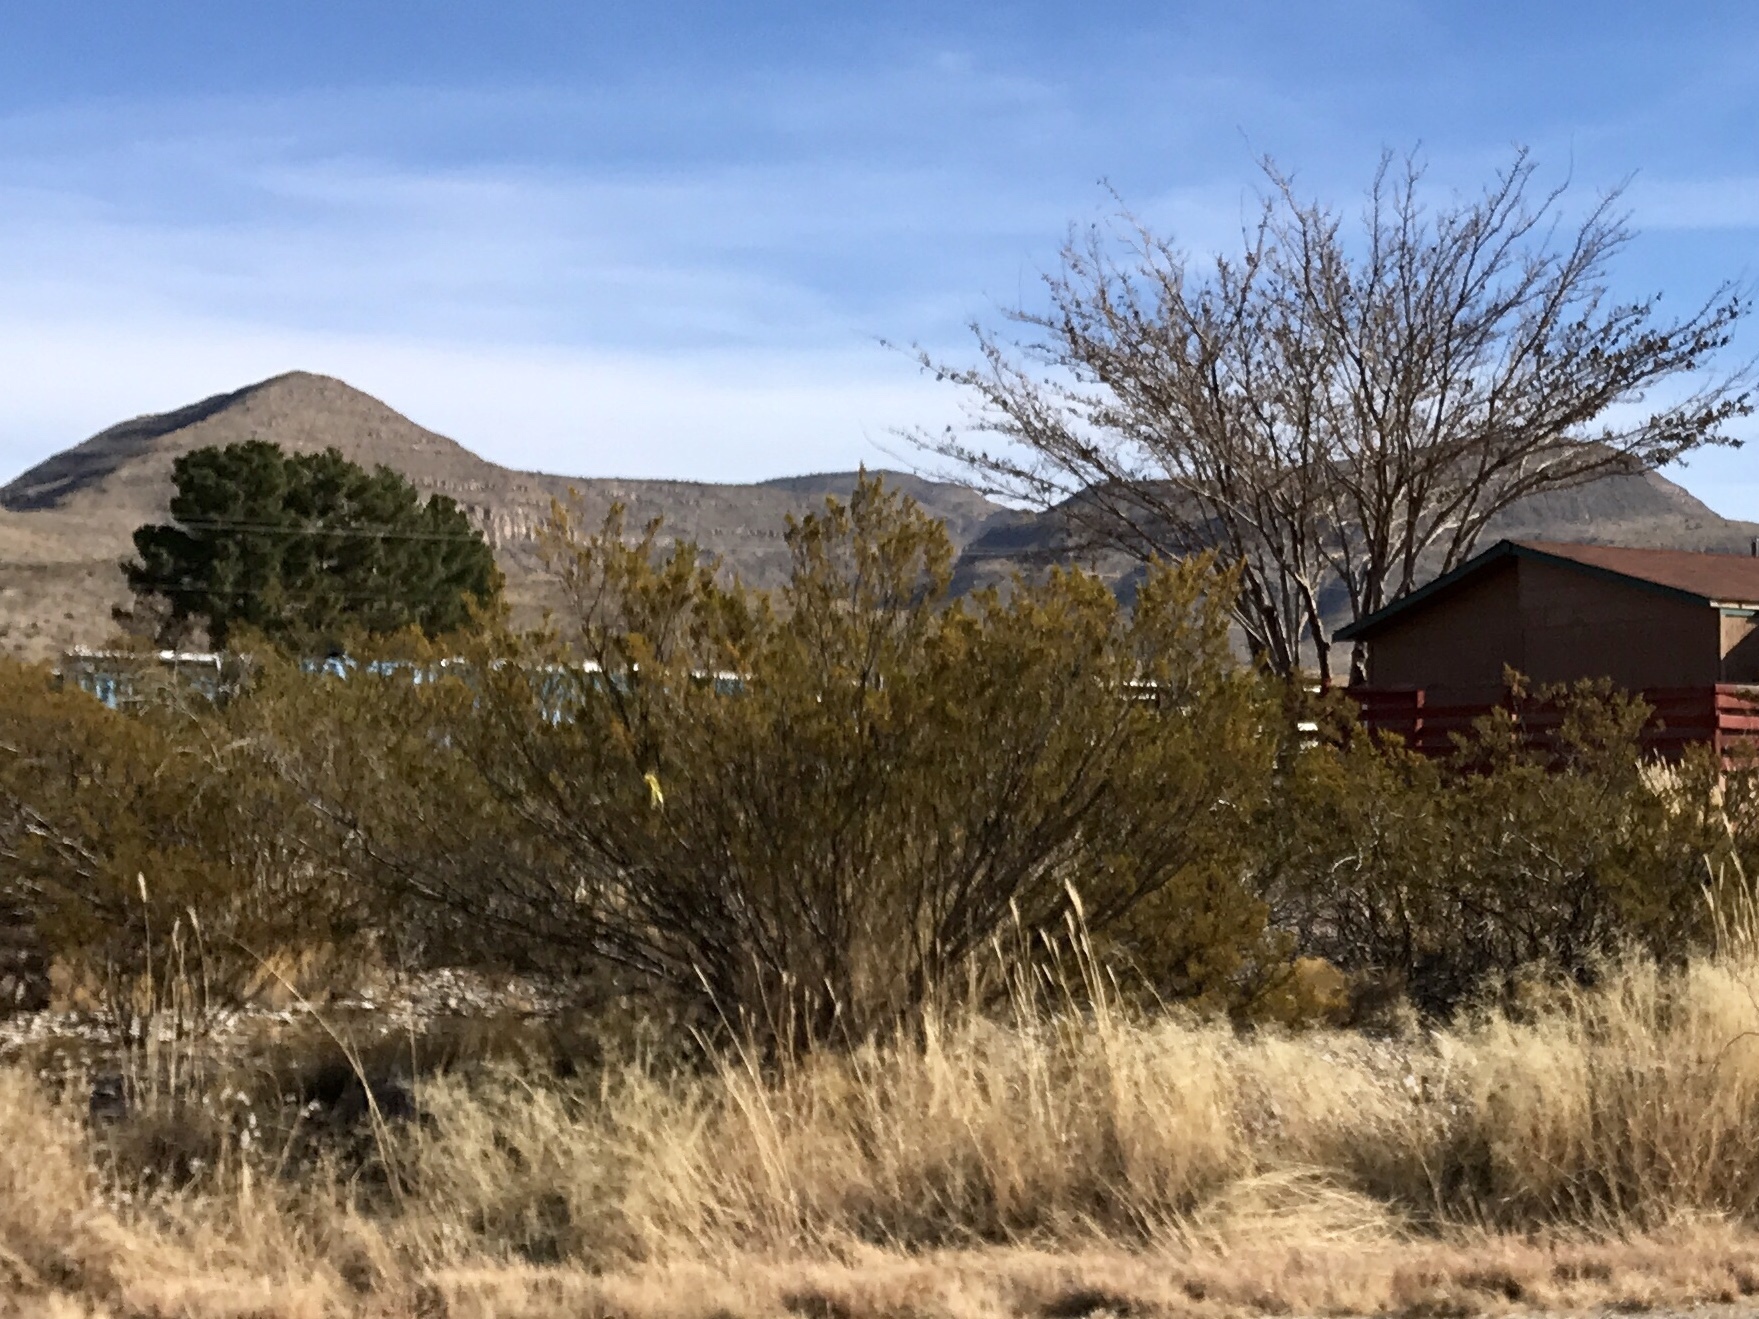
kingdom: Plantae
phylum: Tracheophyta
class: Magnoliopsida
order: Zygophyllales
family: Zygophyllaceae
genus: Larrea
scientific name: Larrea tridentata
